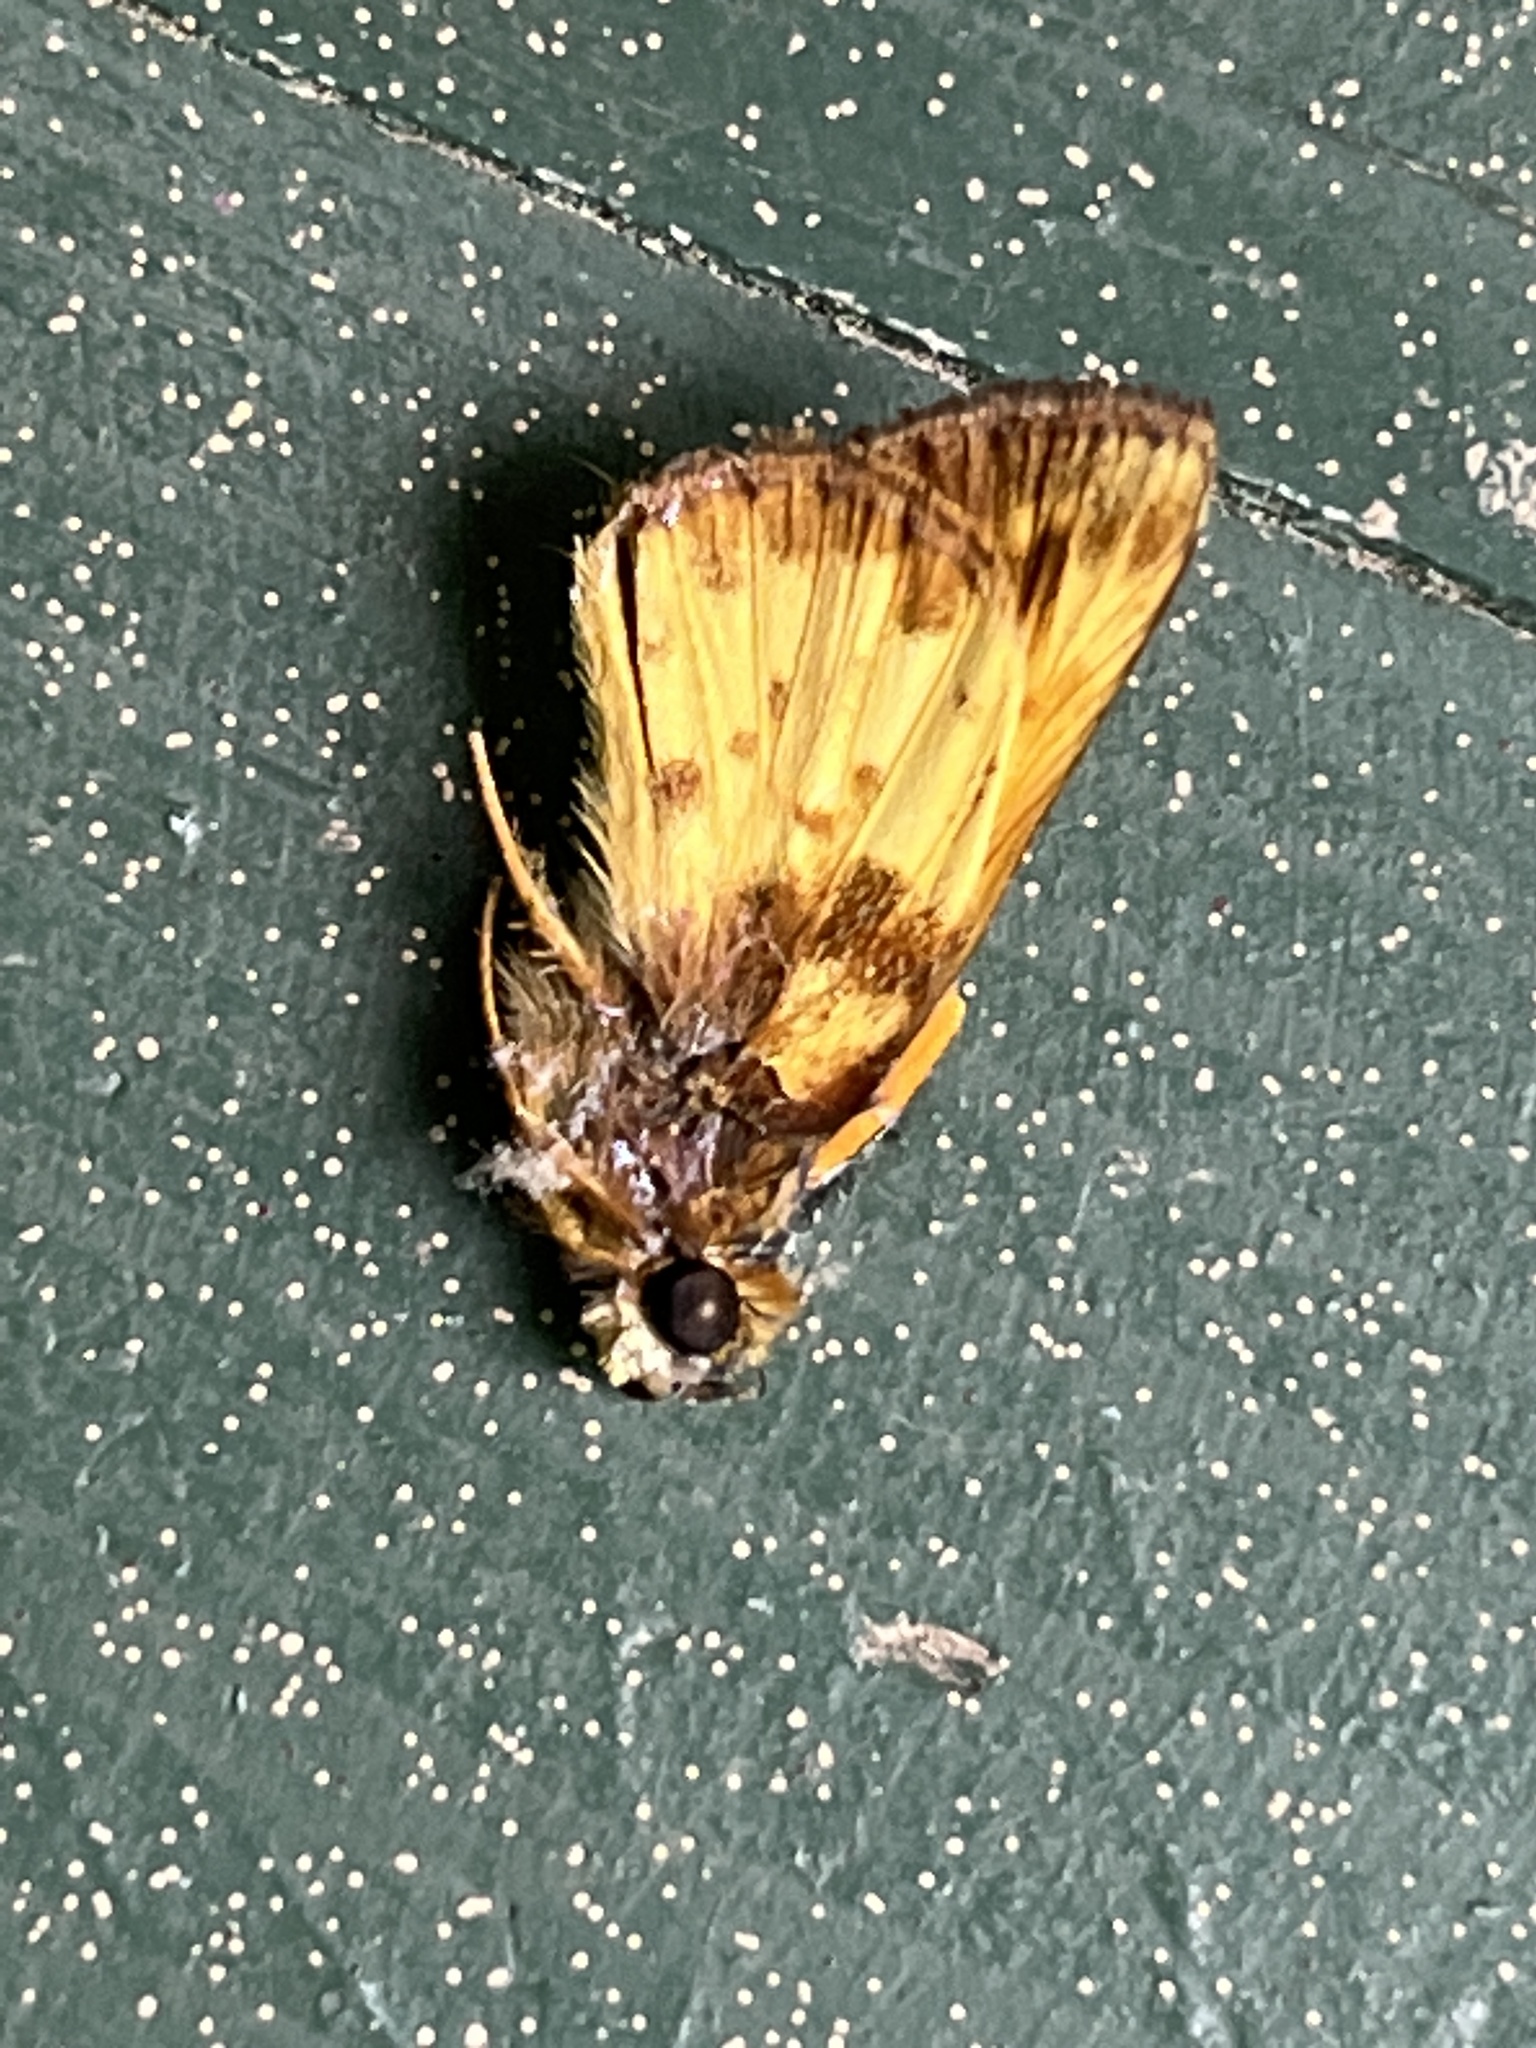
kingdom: Animalia
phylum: Arthropoda
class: Insecta
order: Lepidoptera
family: Hesperiidae
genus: Lon
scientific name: Lon zabulon
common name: Zabulon skipper
